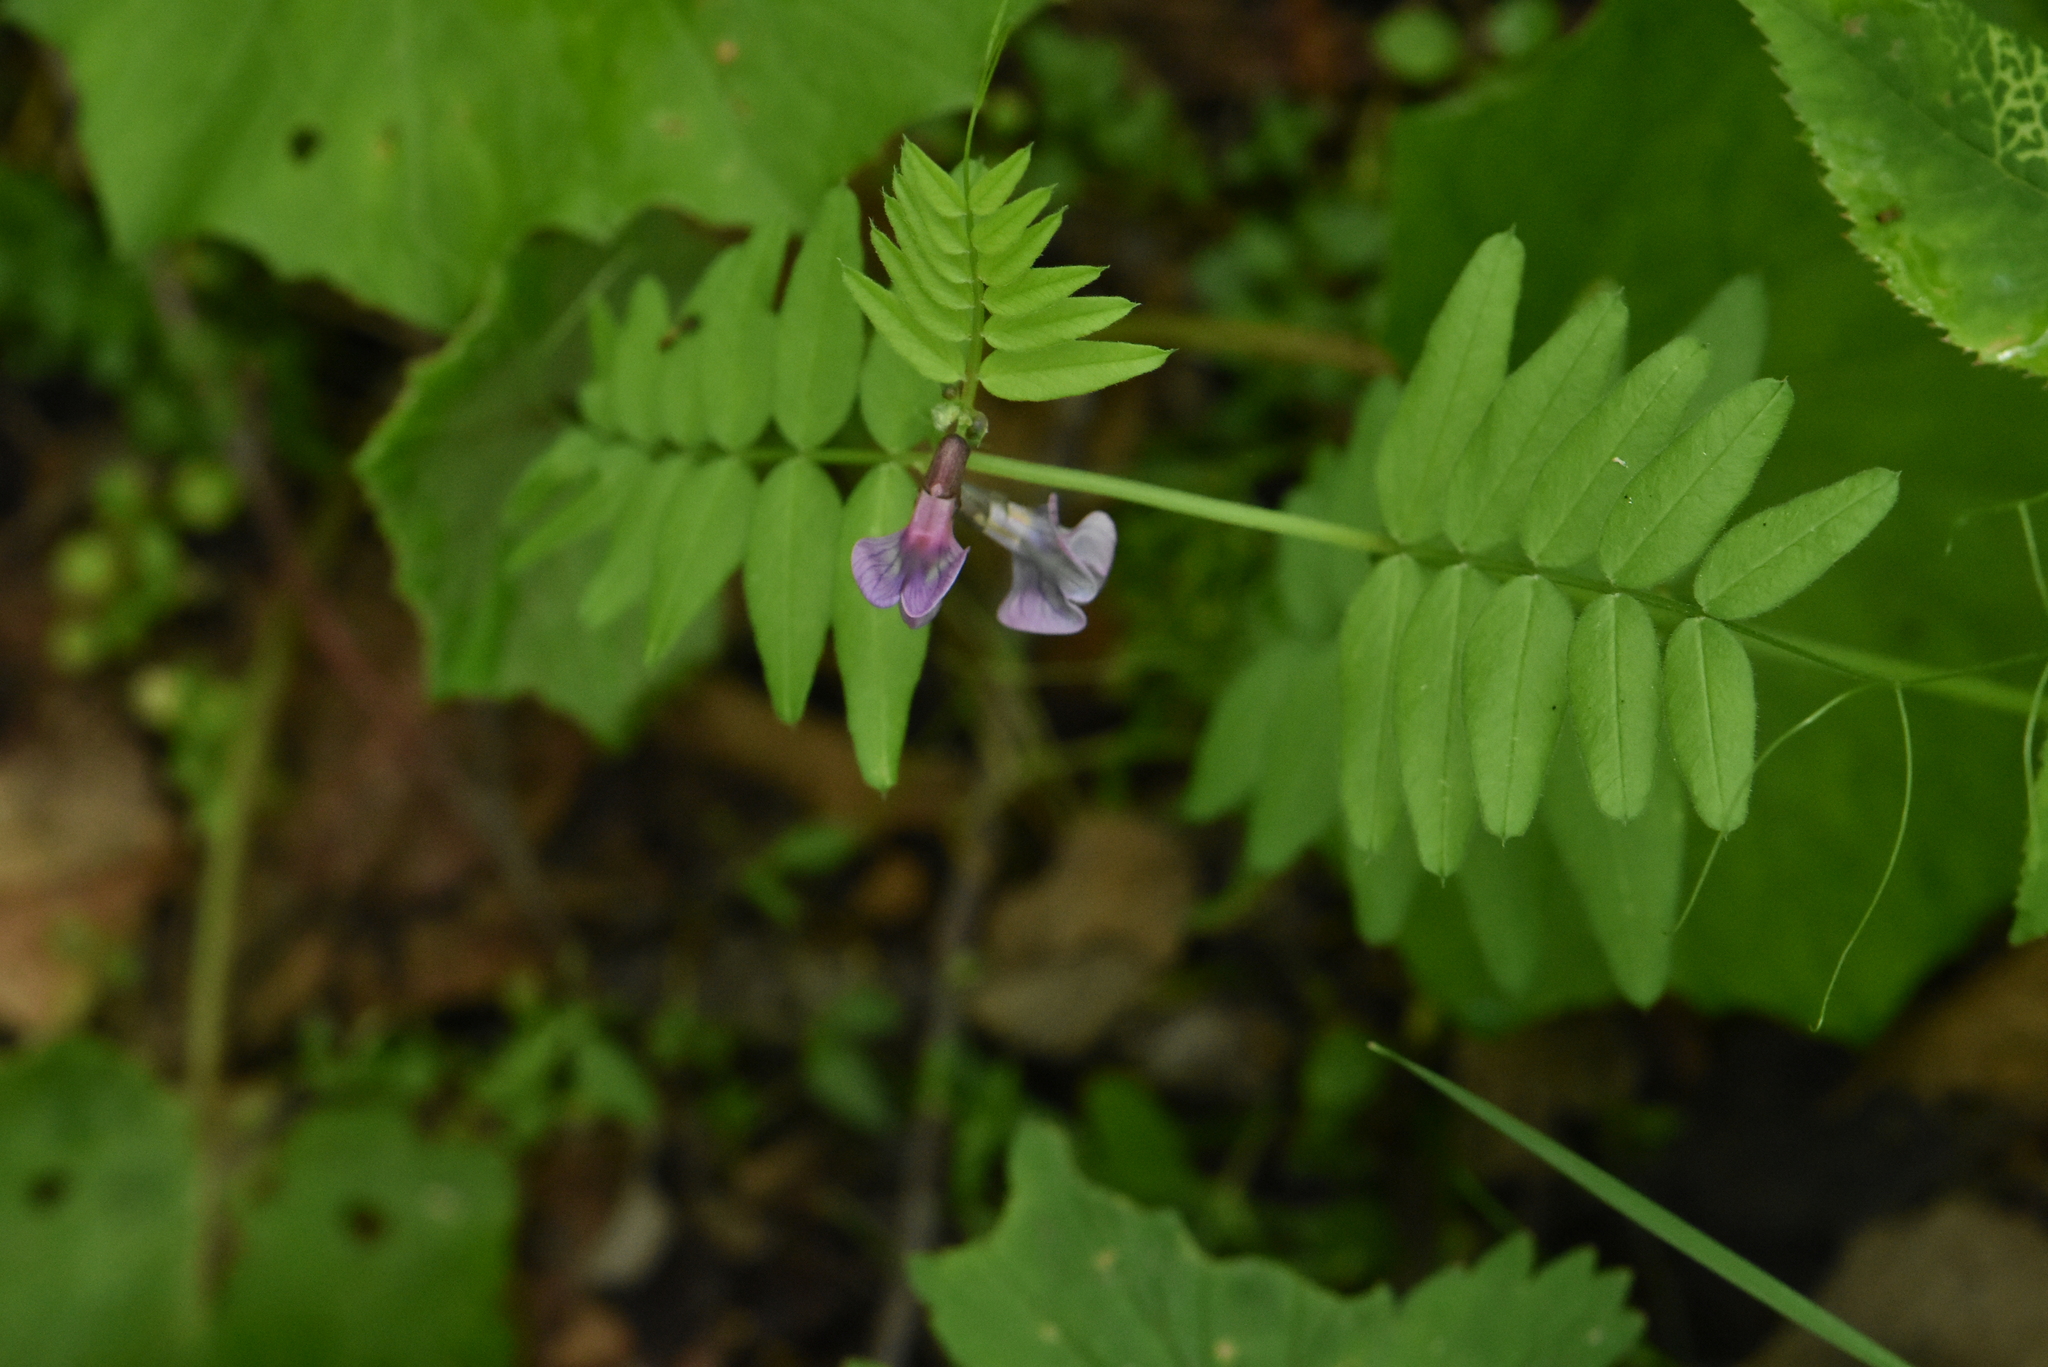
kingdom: Plantae
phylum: Tracheophyta
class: Magnoliopsida
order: Fabales
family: Fabaceae
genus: Vicia
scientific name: Vicia sepium
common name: Bush vetch
